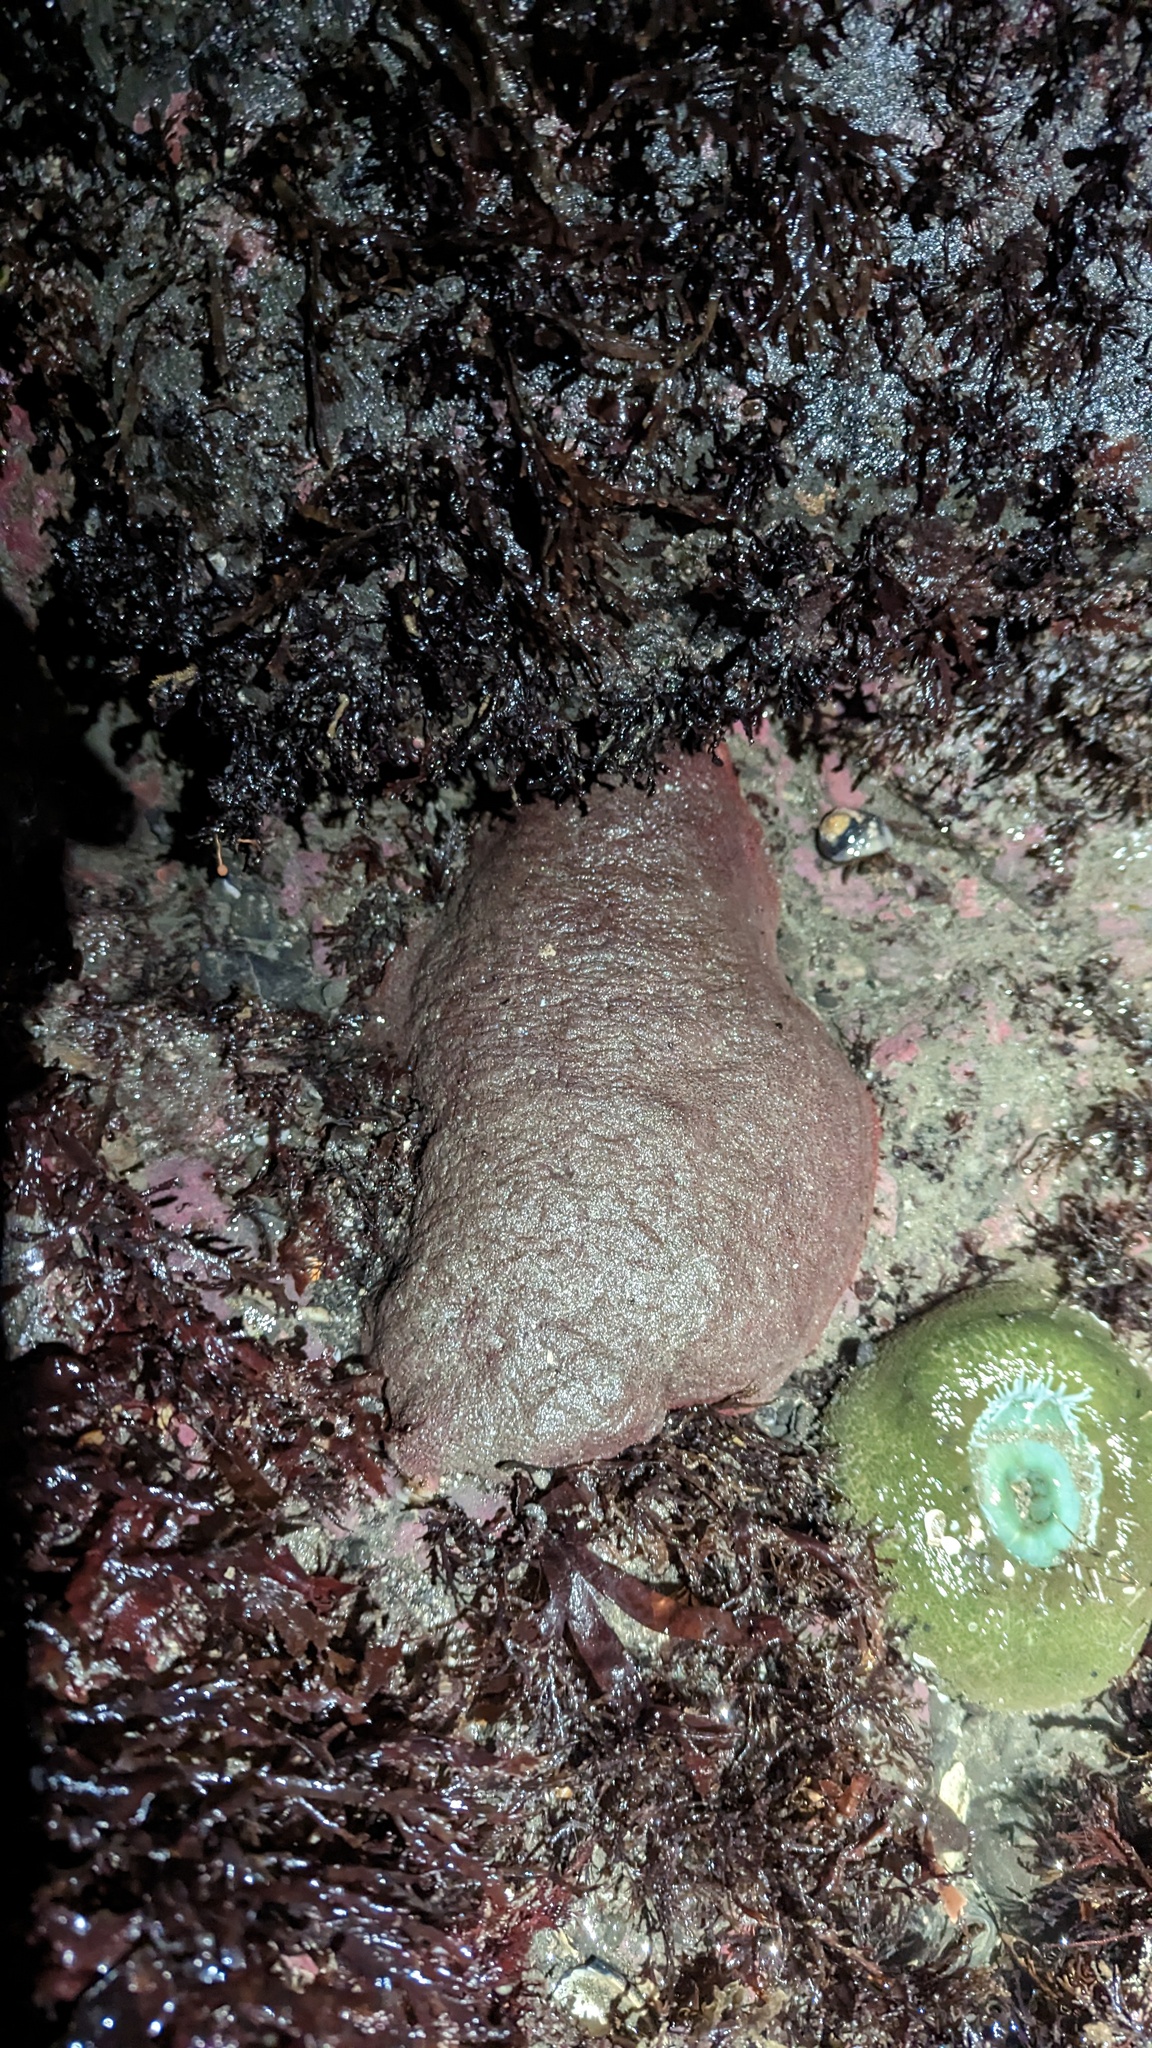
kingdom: Animalia
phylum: Mollusca
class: Polyplacophora
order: Chitonida
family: Acanthochitonidae
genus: Cryptochiton
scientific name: Cryptochiton stelleri
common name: Giant pacific chiton
